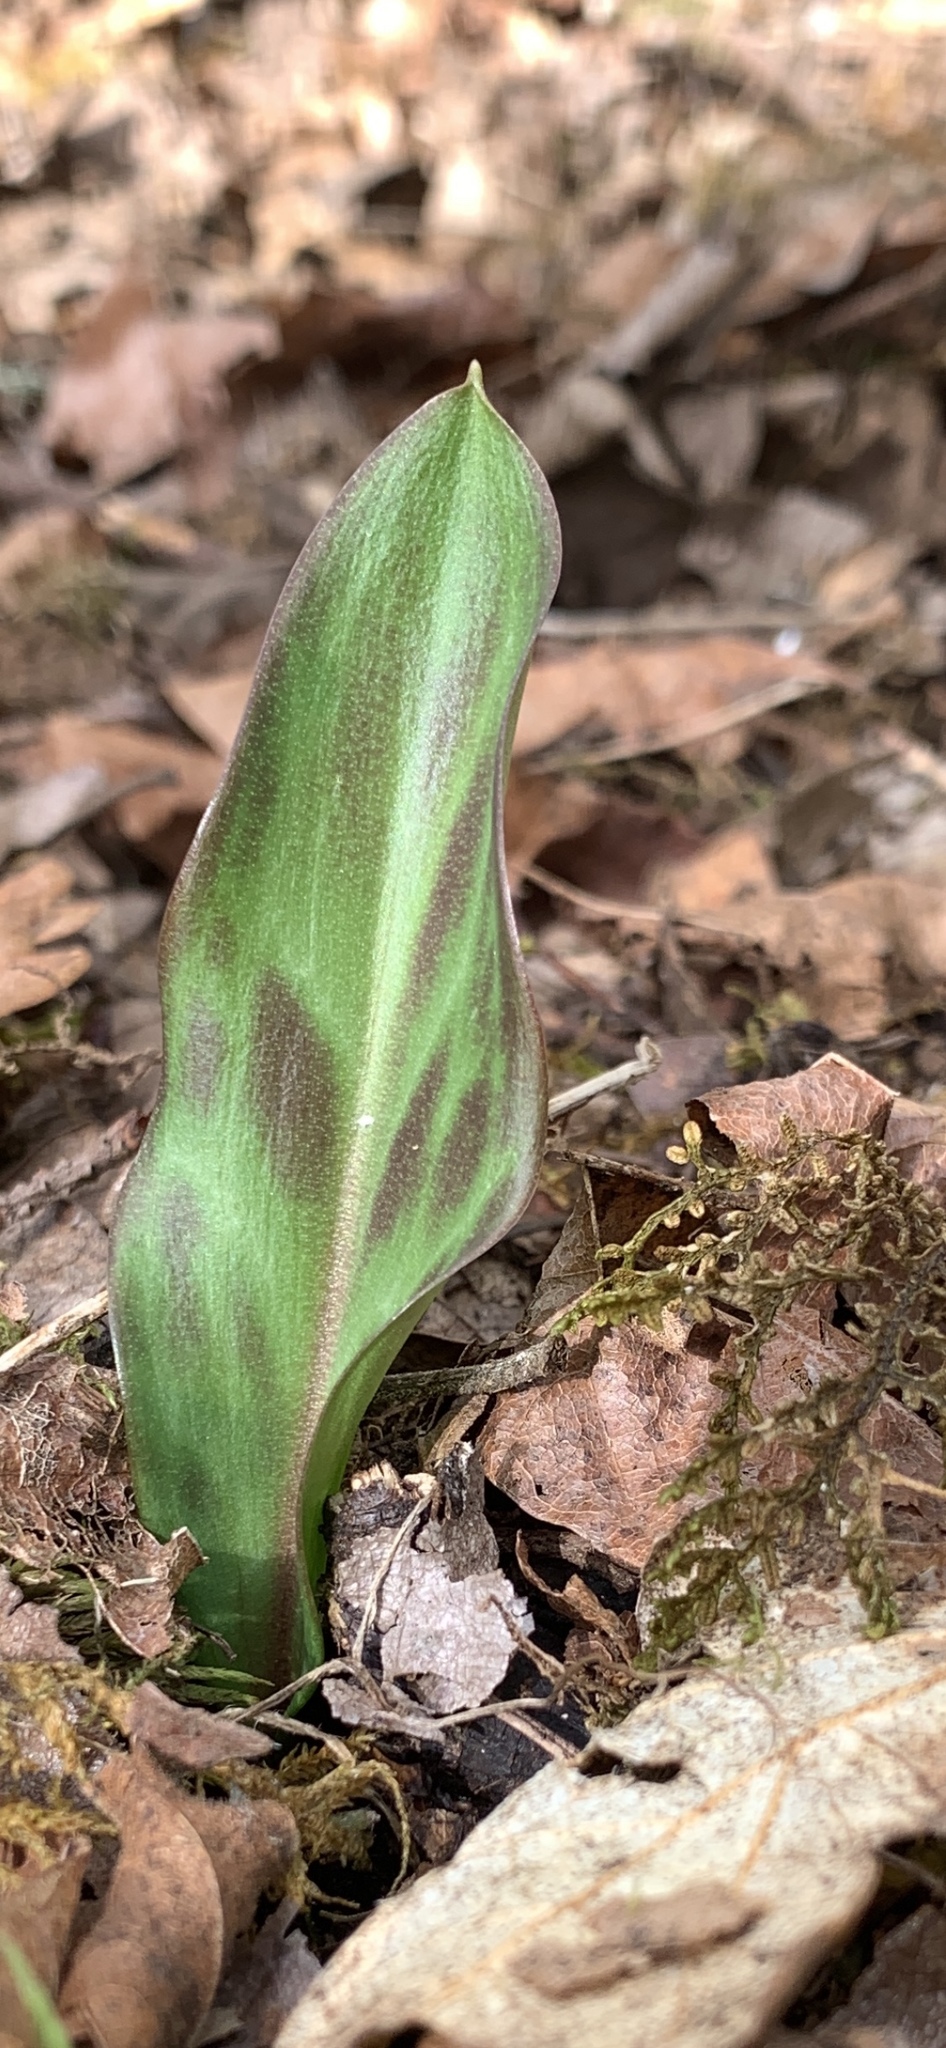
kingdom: Plantae
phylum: Tracheophyta
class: Liliopsida
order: Liliales
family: Liliaceae
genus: Erythronium
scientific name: Erythronium oregonum
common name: Giant adder's-tongue
